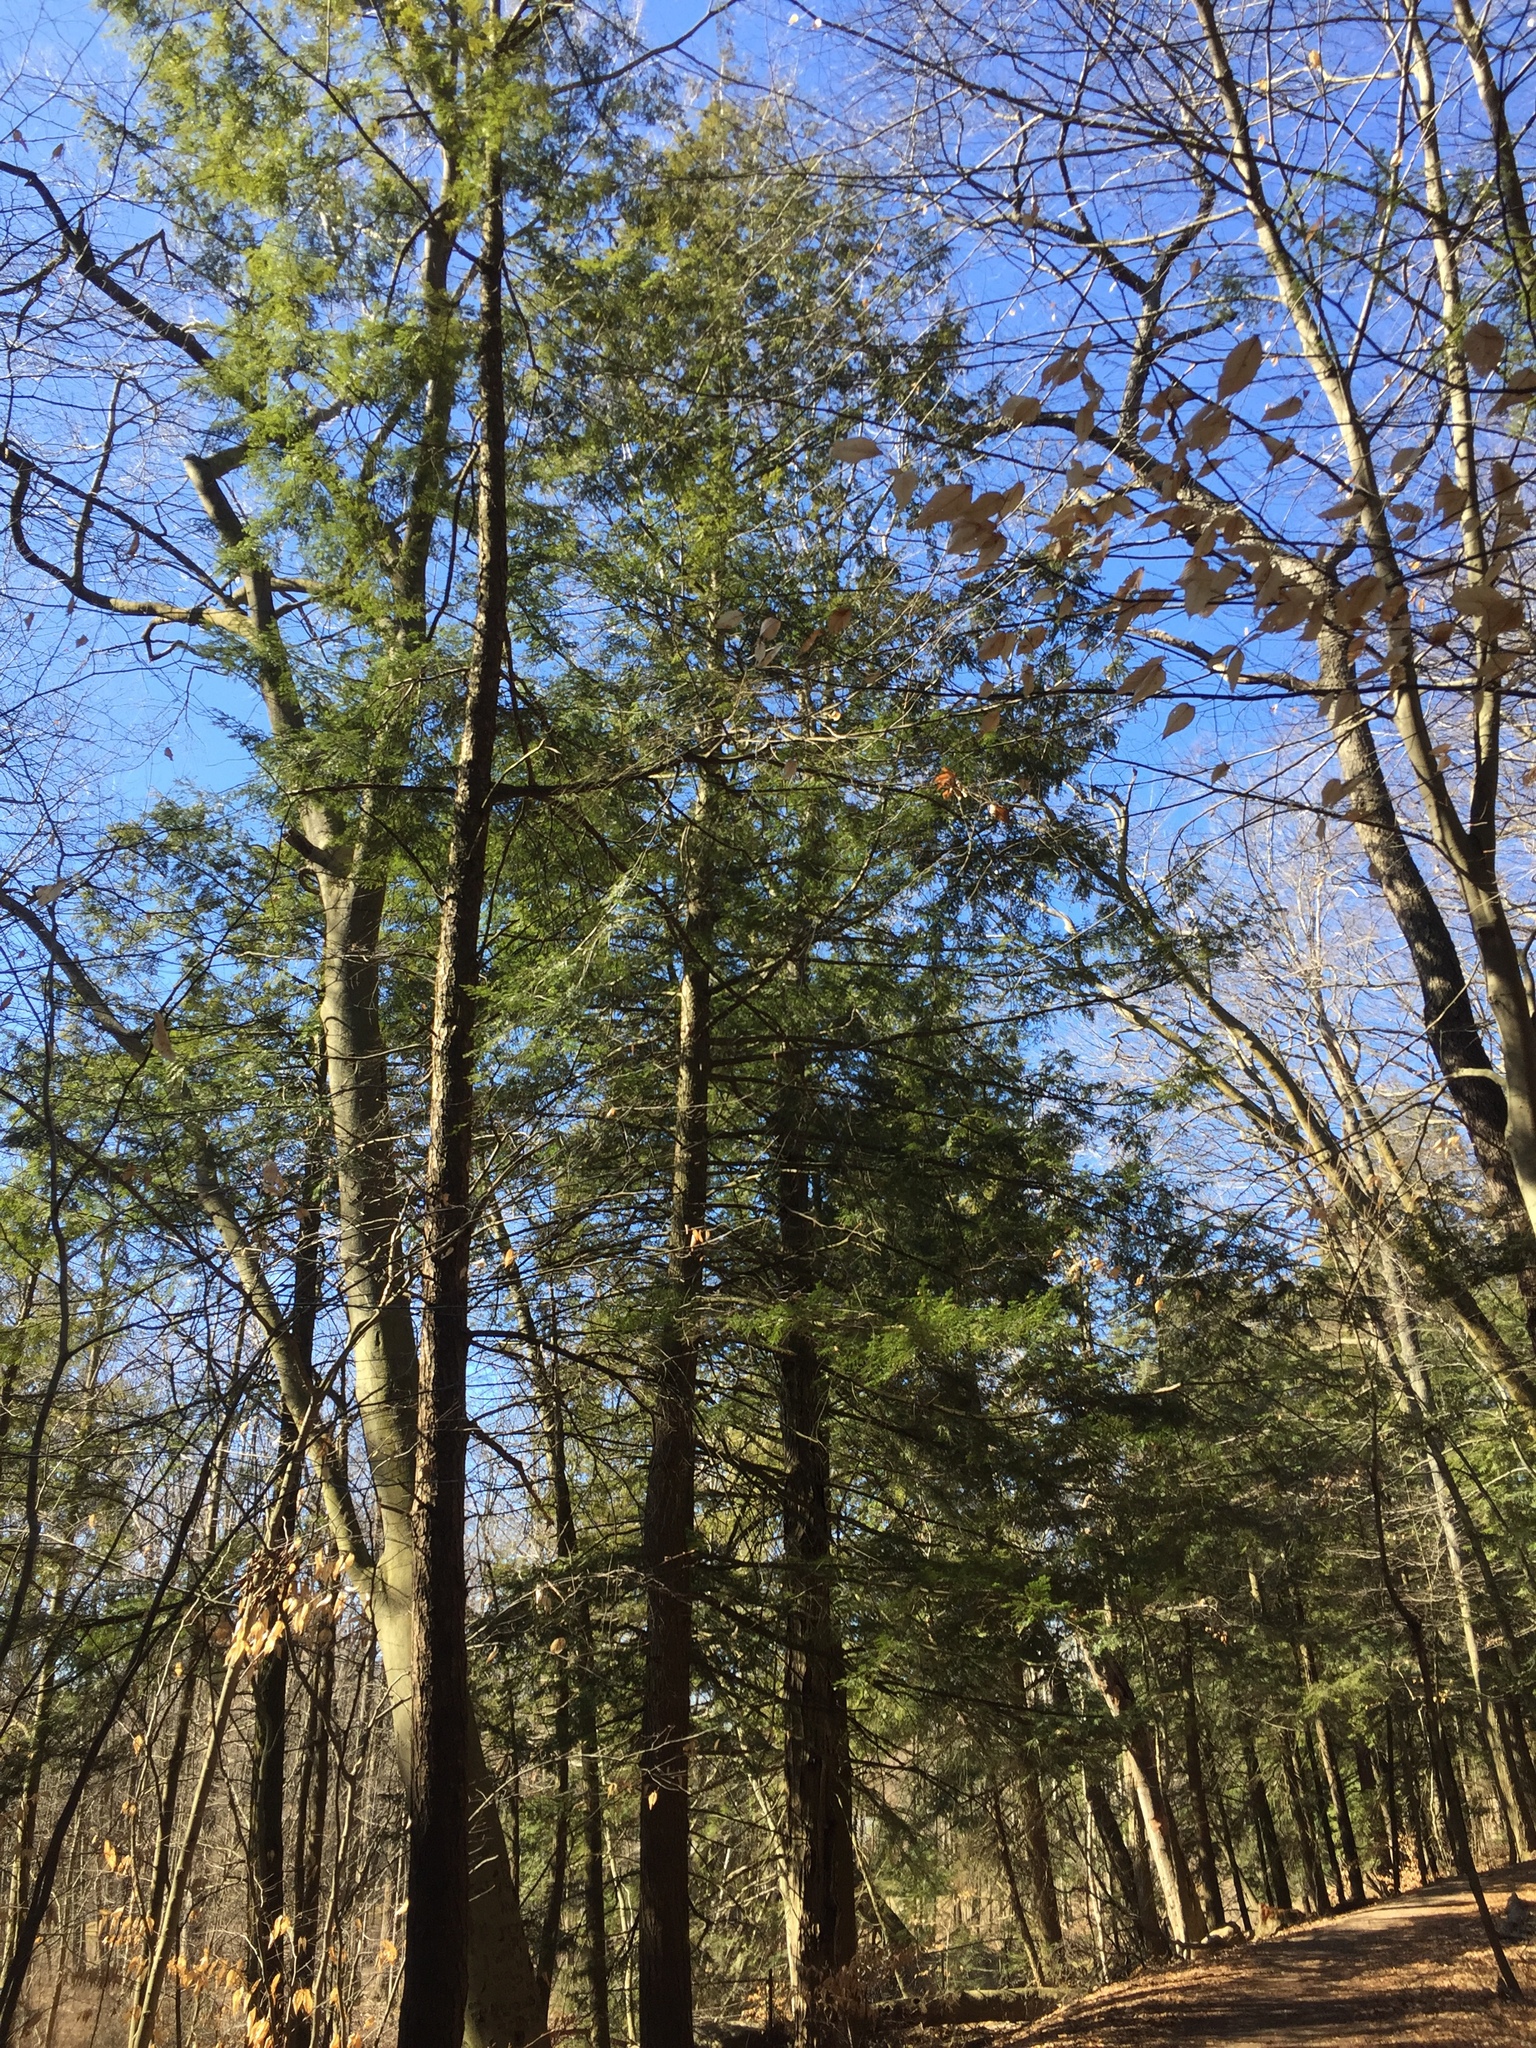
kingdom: Plantae
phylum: Tracheophyta
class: Pinopsida
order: Pinales
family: Pinaceae
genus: Tsuga
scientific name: Tsuga canadensis
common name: Eastern hemlock
